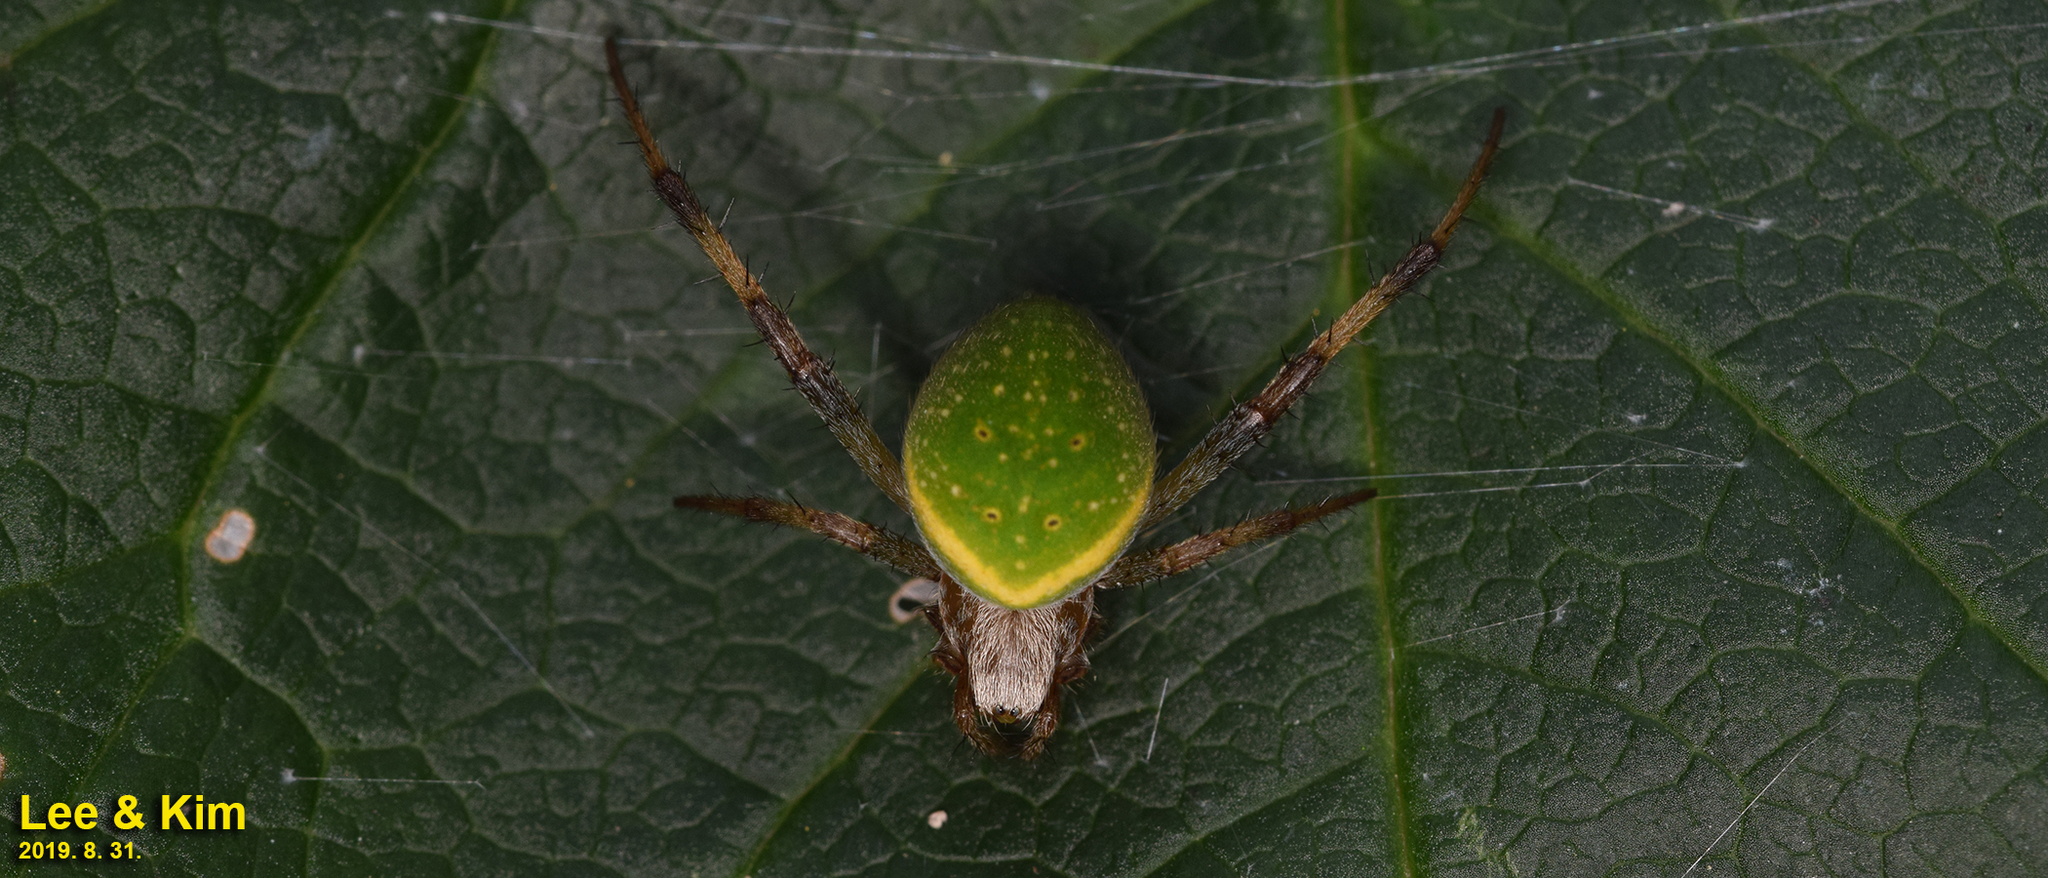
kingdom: Animalia
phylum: Arthropoda
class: Arachnida
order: Araneae
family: Araneidae
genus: Neoscona
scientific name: Neoscona scylloides
